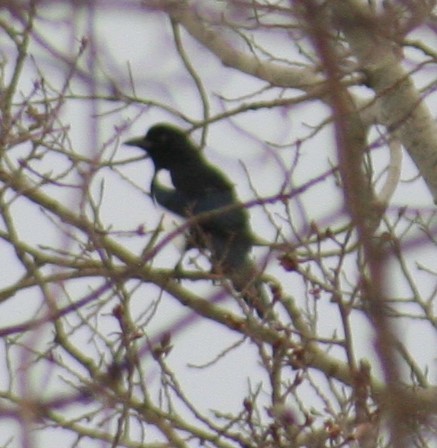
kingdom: Animalia
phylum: Chordata
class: Aves
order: Passeriformes
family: Corvidae
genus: Pica
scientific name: Pica hudsonia
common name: Black-billed magpie
